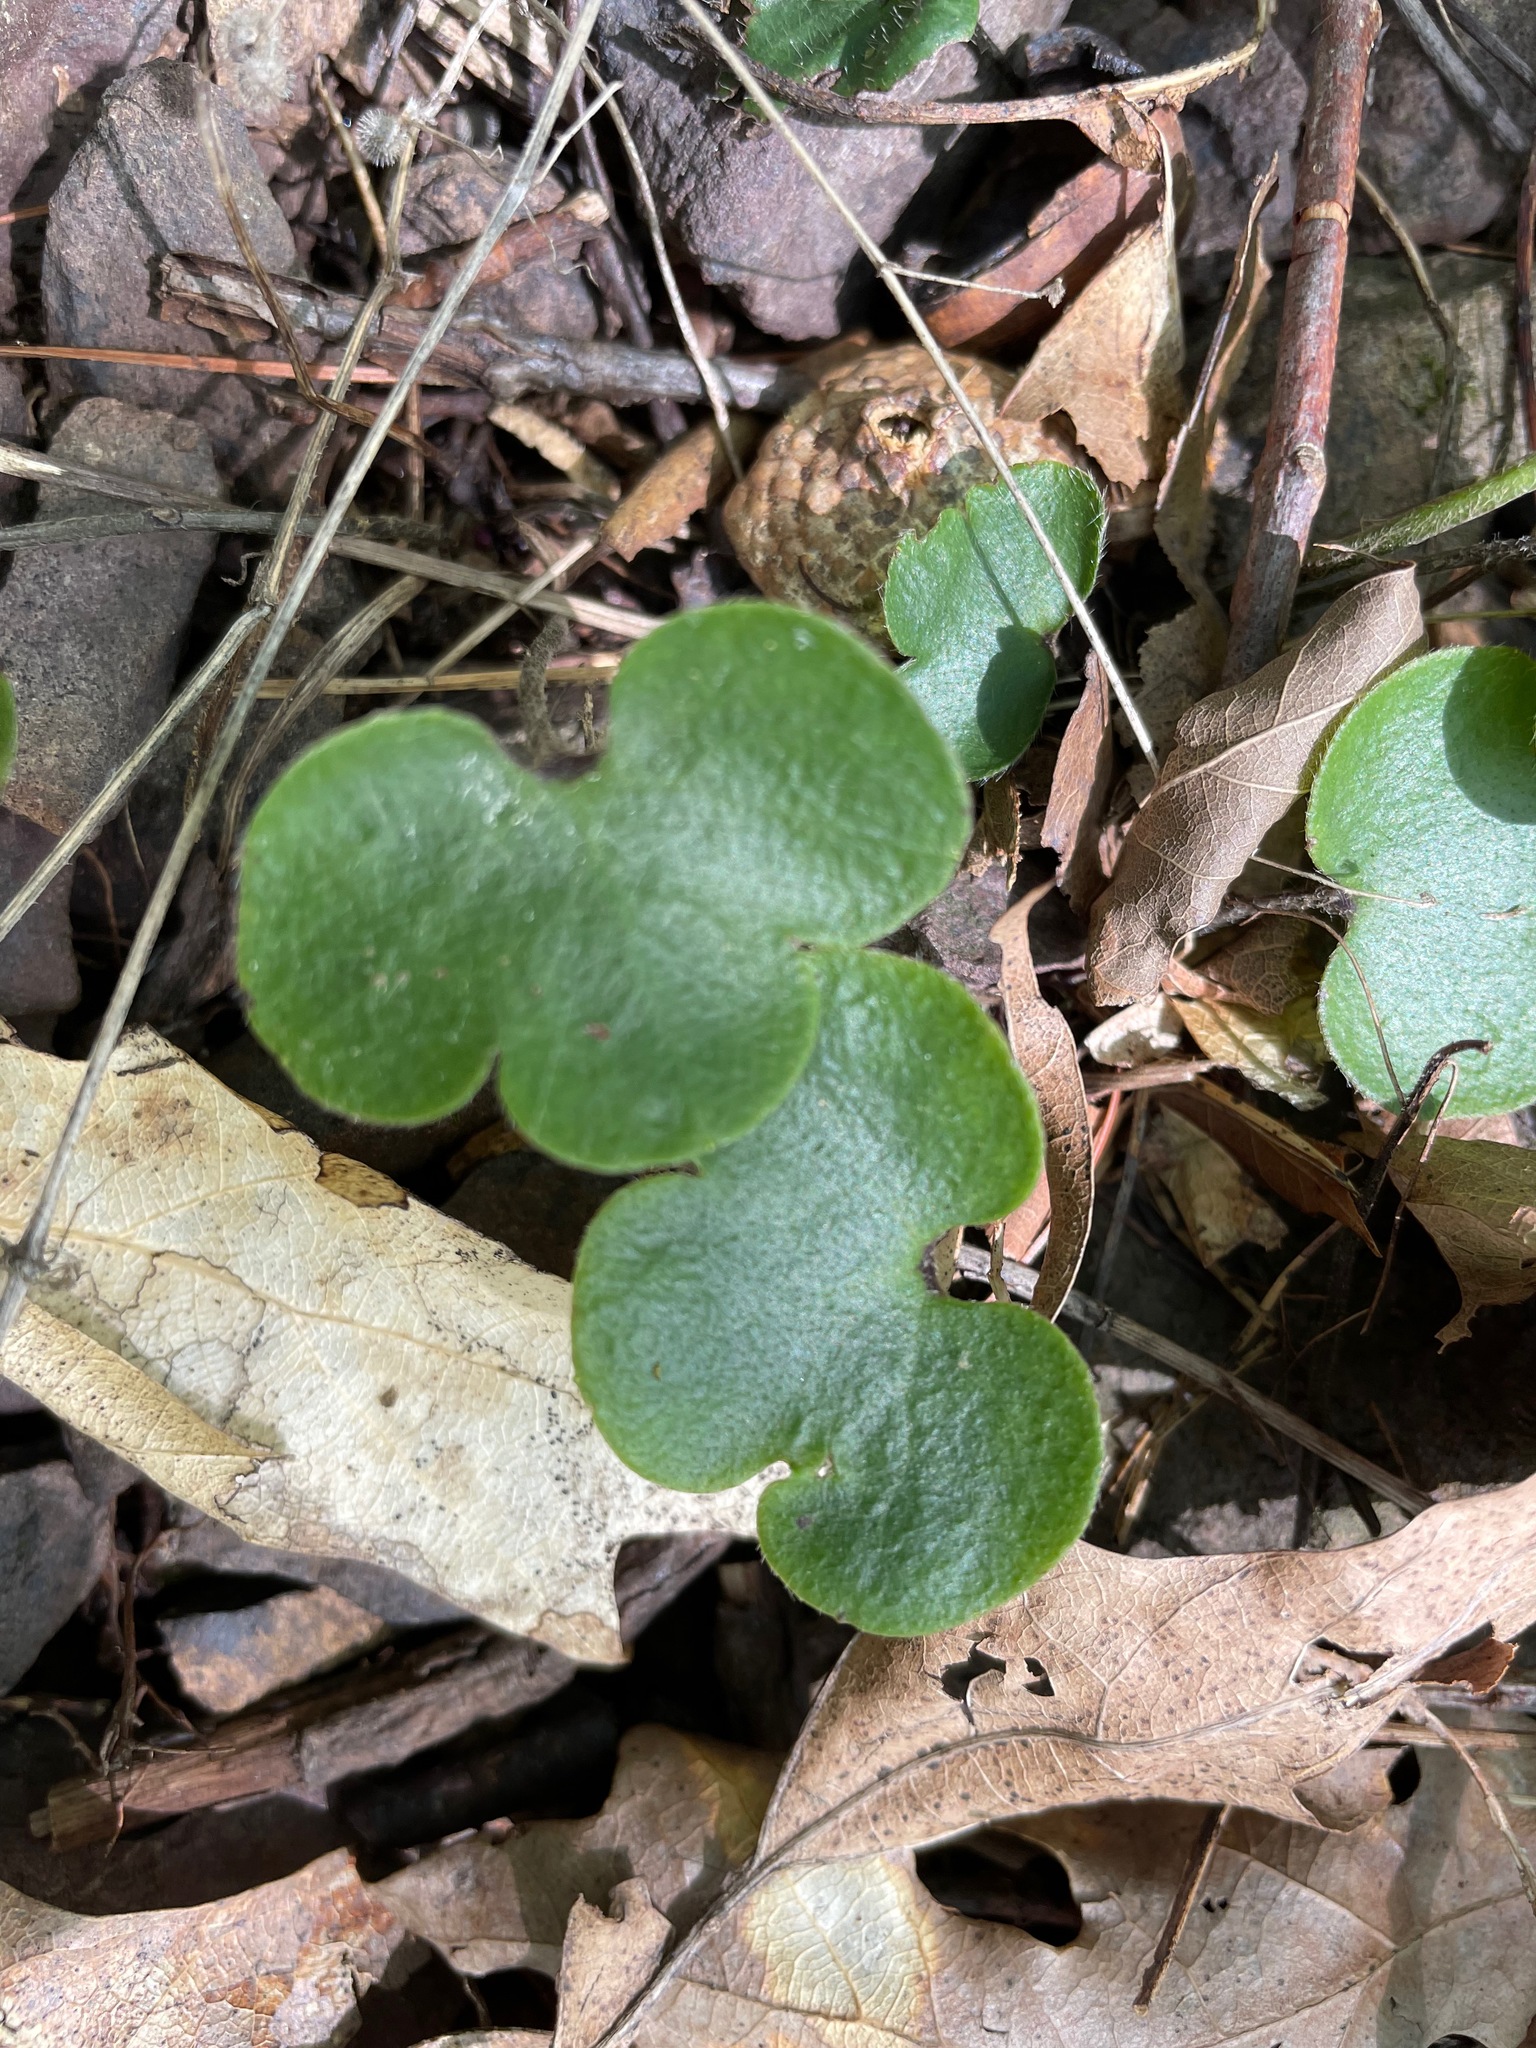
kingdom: Plantae
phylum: Tracheophyta
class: Magnoliopsida
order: Ranunculales
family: Ranunculaceae
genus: Hepatica
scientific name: Hepatica americana
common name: American hepatica
